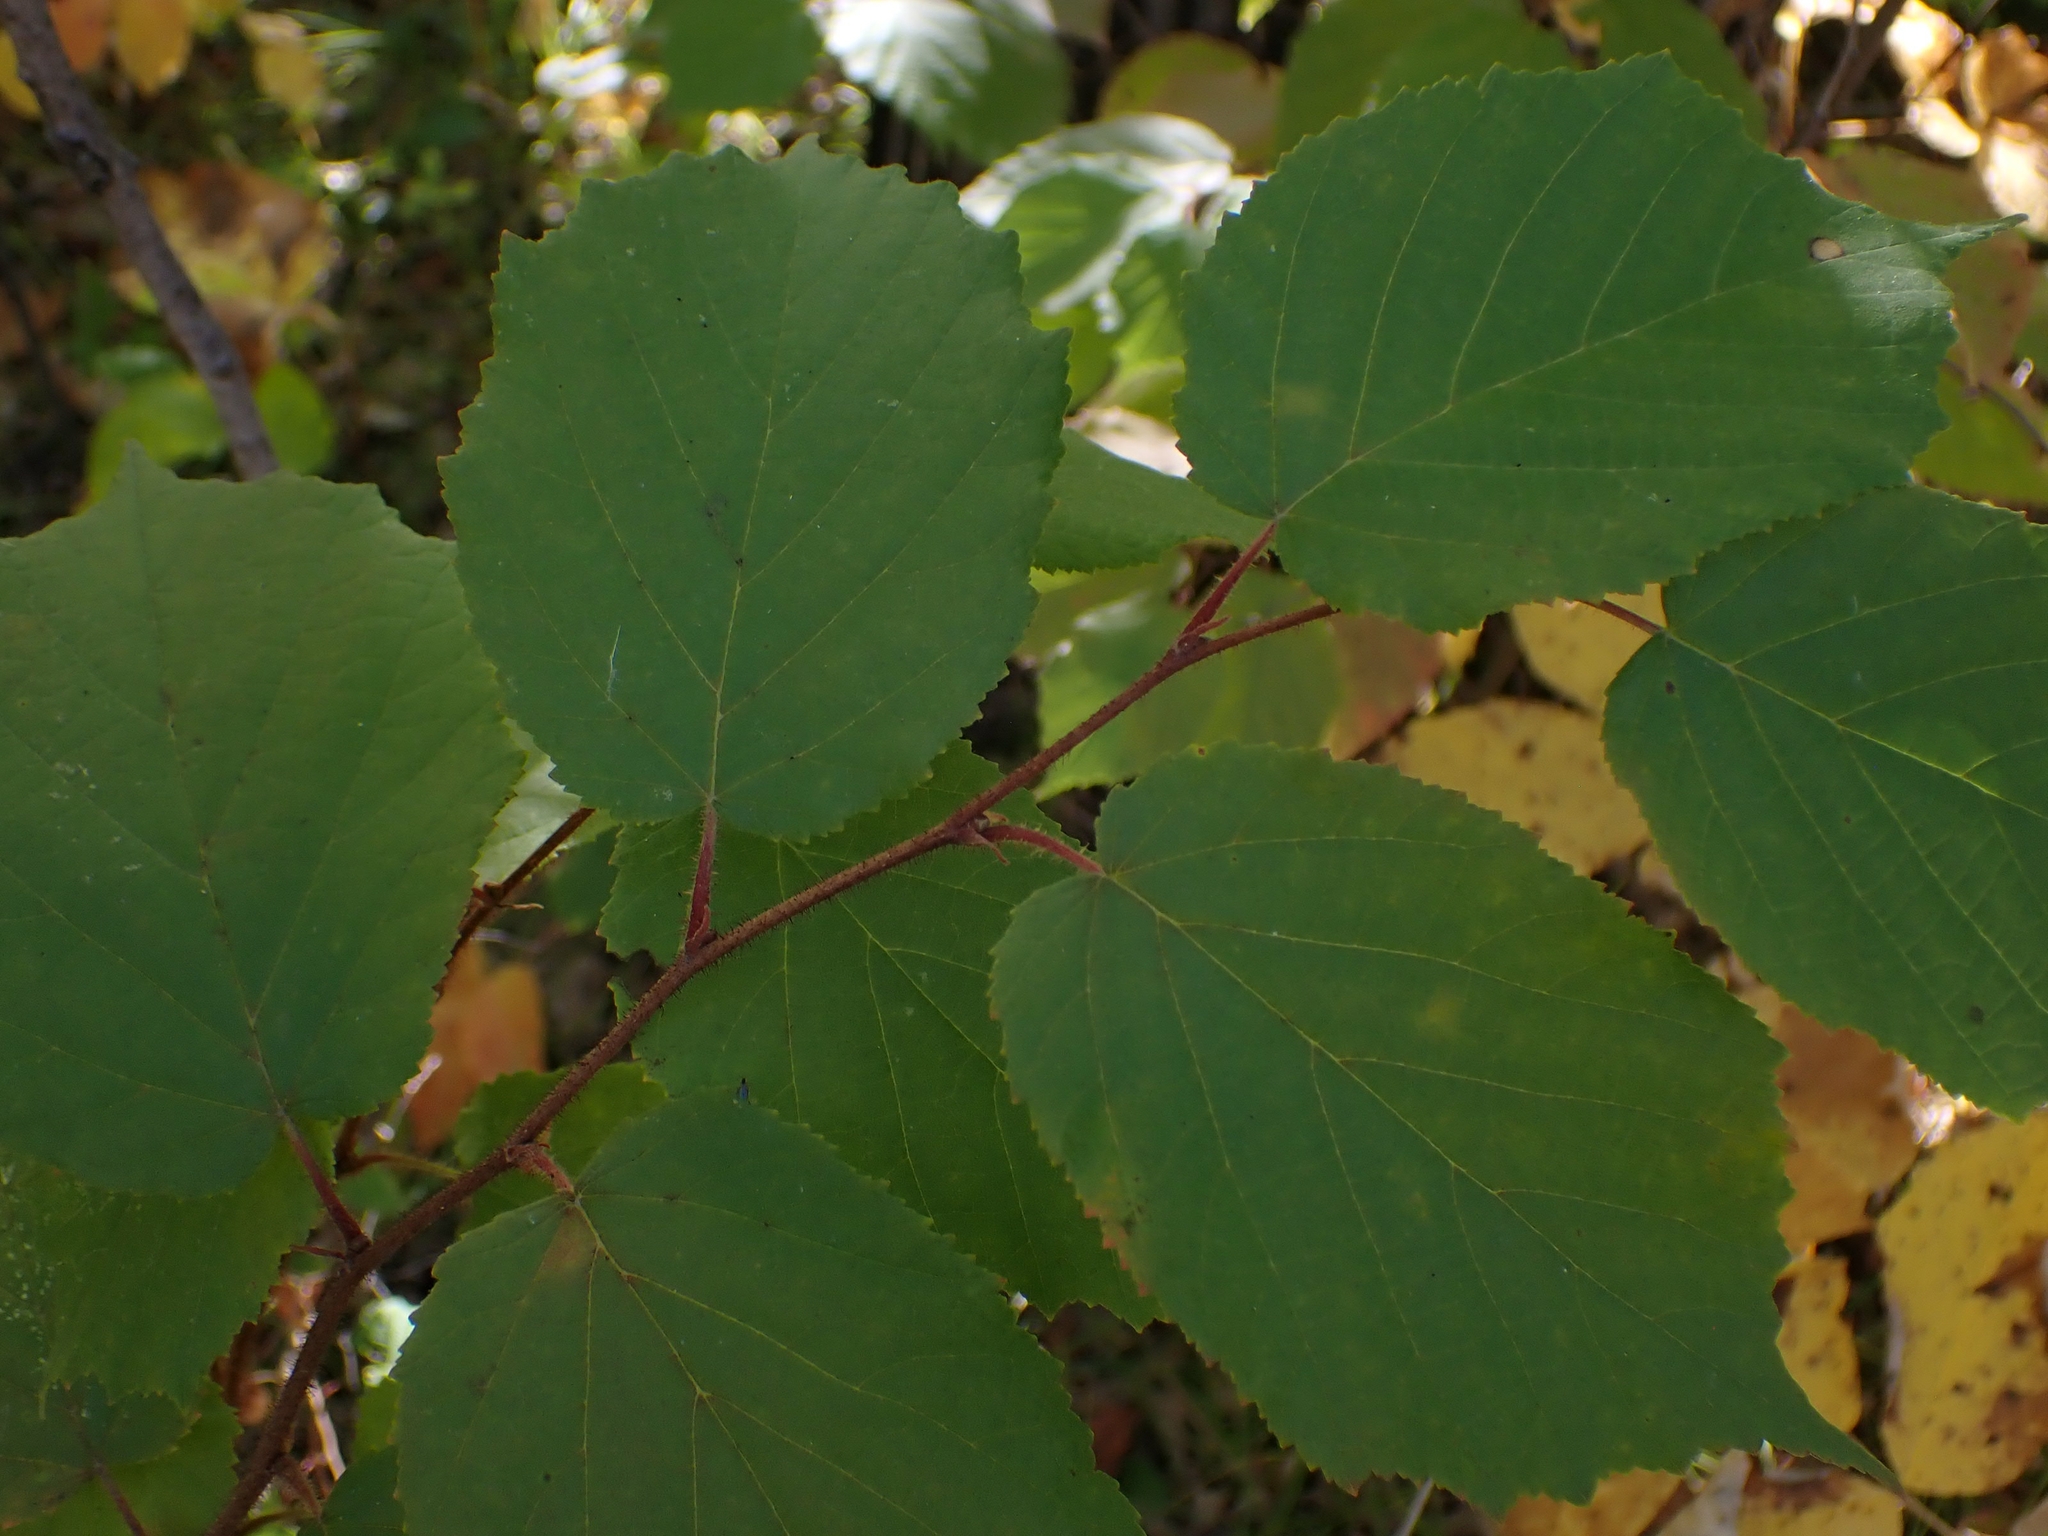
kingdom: Plantae
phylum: Tracheophyta
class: Magnoliopsida
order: Fagales
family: Betulaceae
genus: Corylus
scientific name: Corylus americana
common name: American hazel
